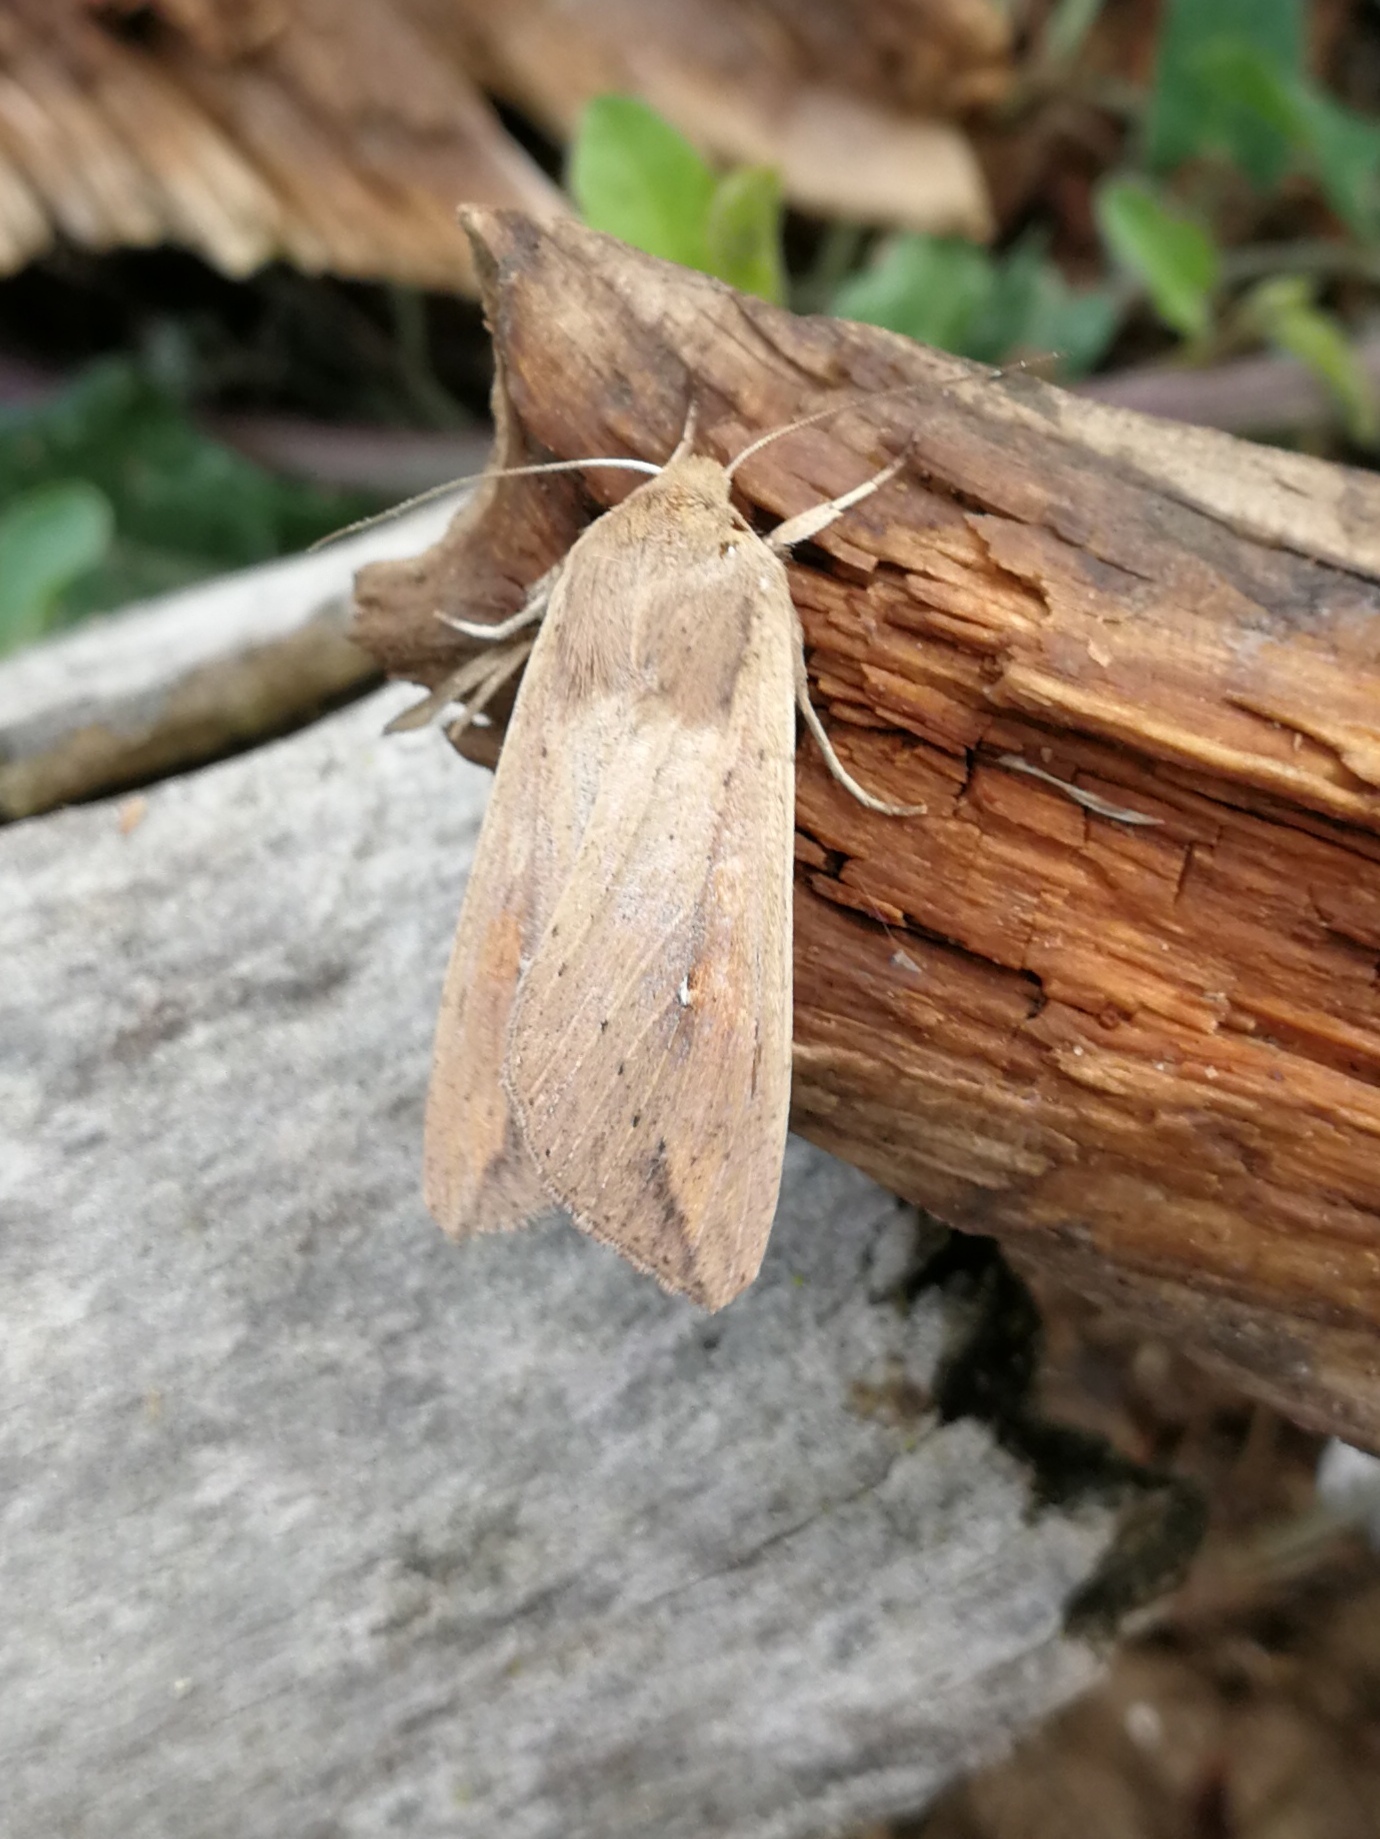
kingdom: Animalia
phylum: Arthropoda
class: Insecta
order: Lepidoptera
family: Noctuidae
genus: Mythimna
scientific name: Mythimna unipuncta
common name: White-speck
